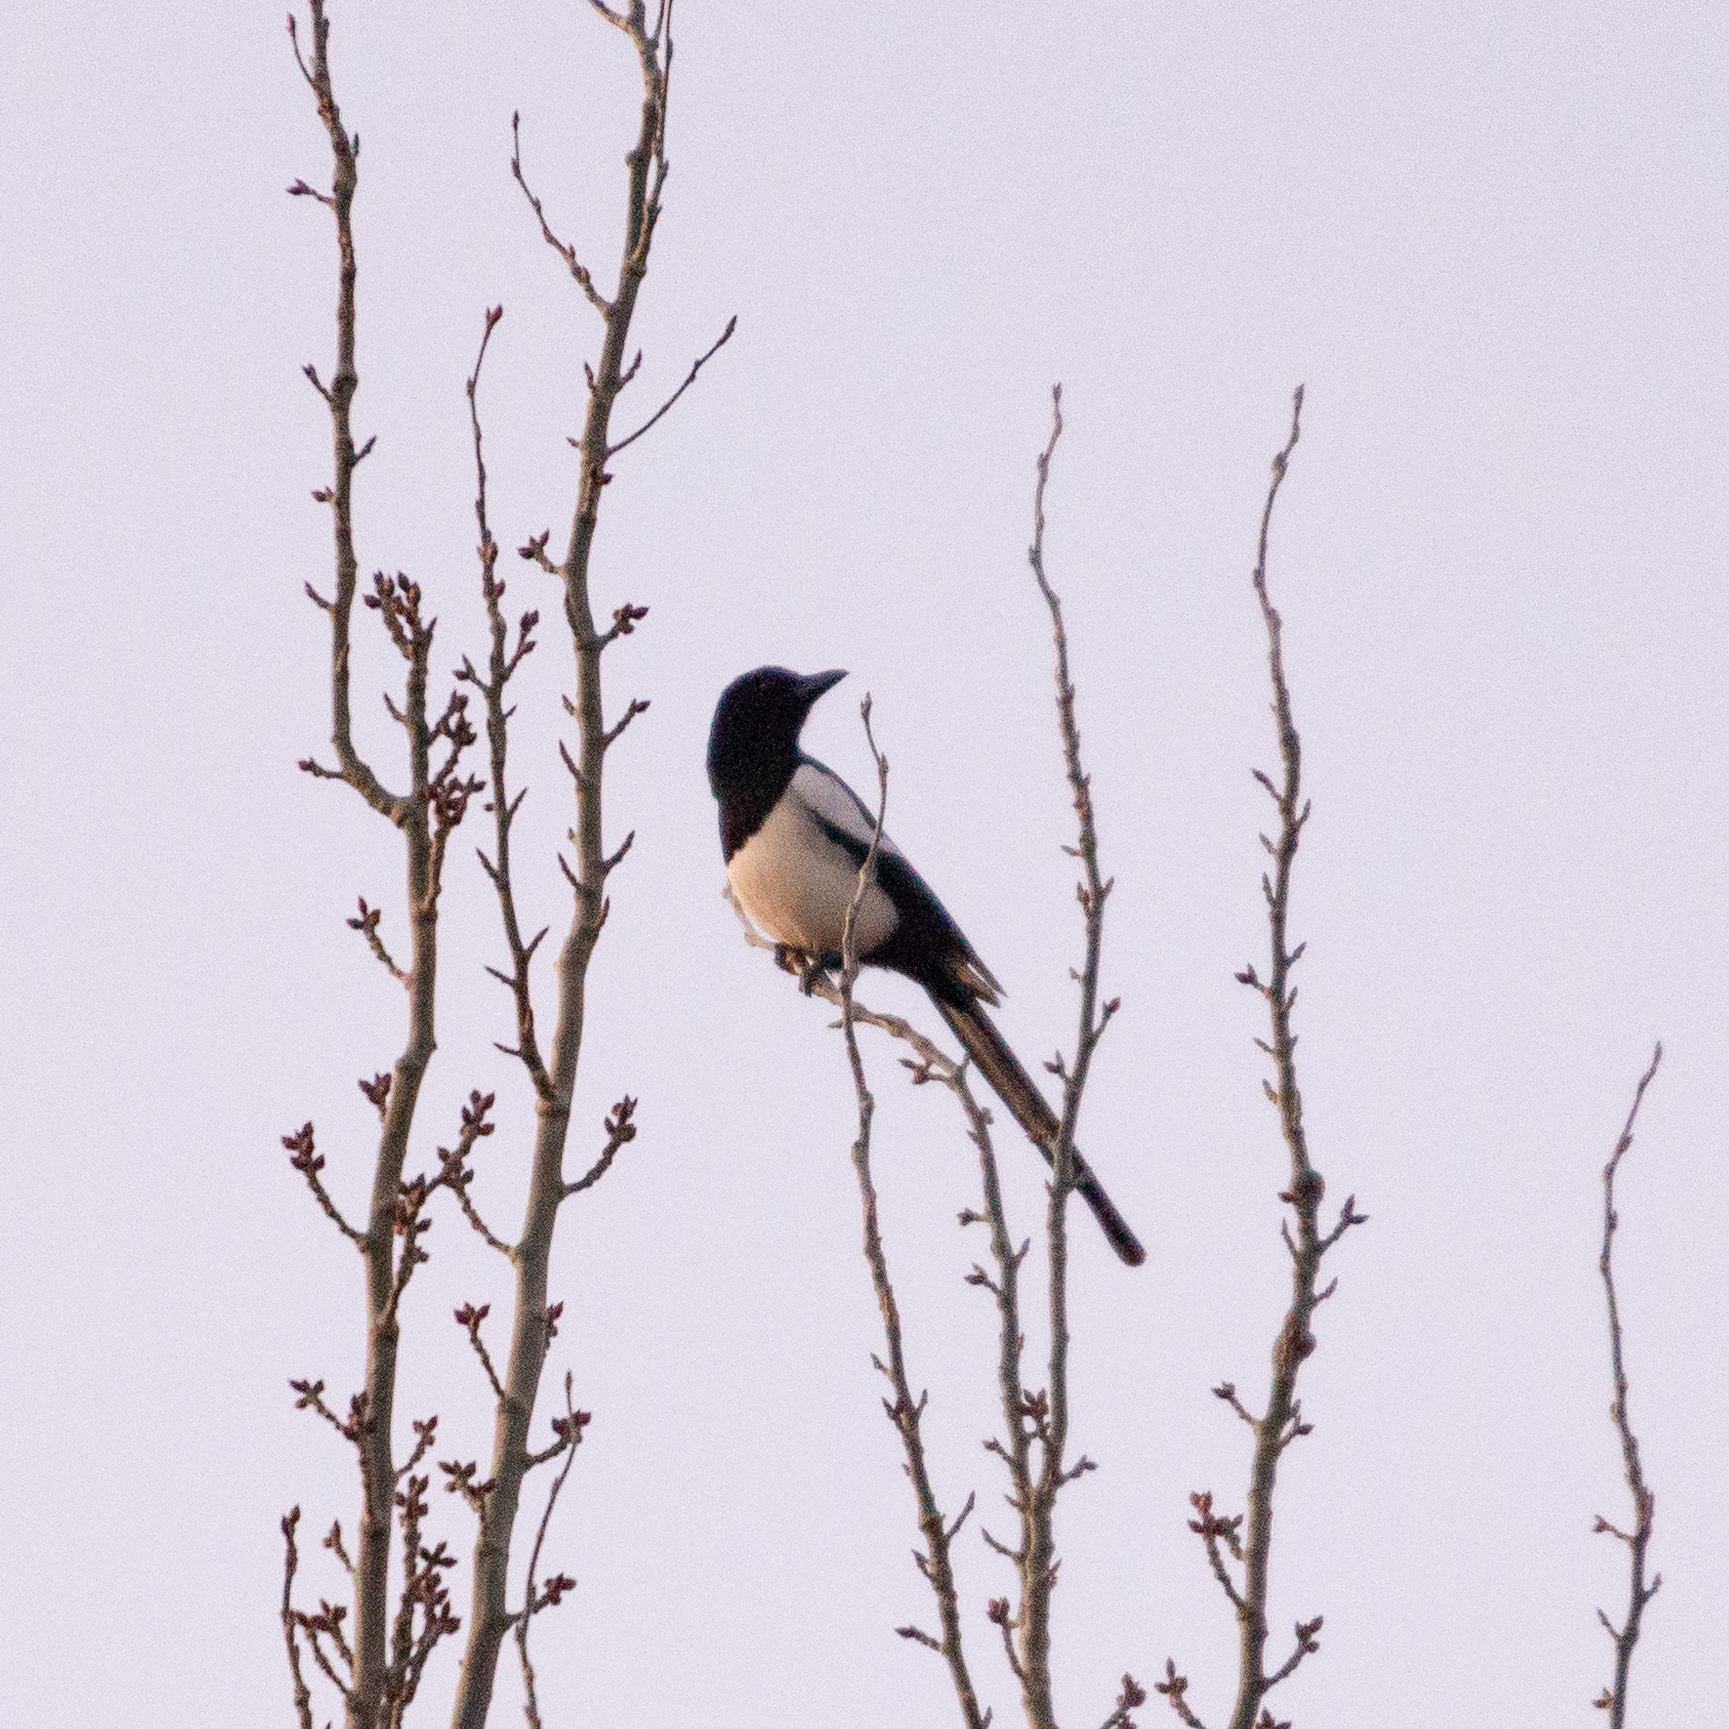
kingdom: Animalia
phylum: Chordata
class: Aves
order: Passeriformes
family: Corvidae
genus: Pica
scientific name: Pica pica
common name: Eurasian magpie
